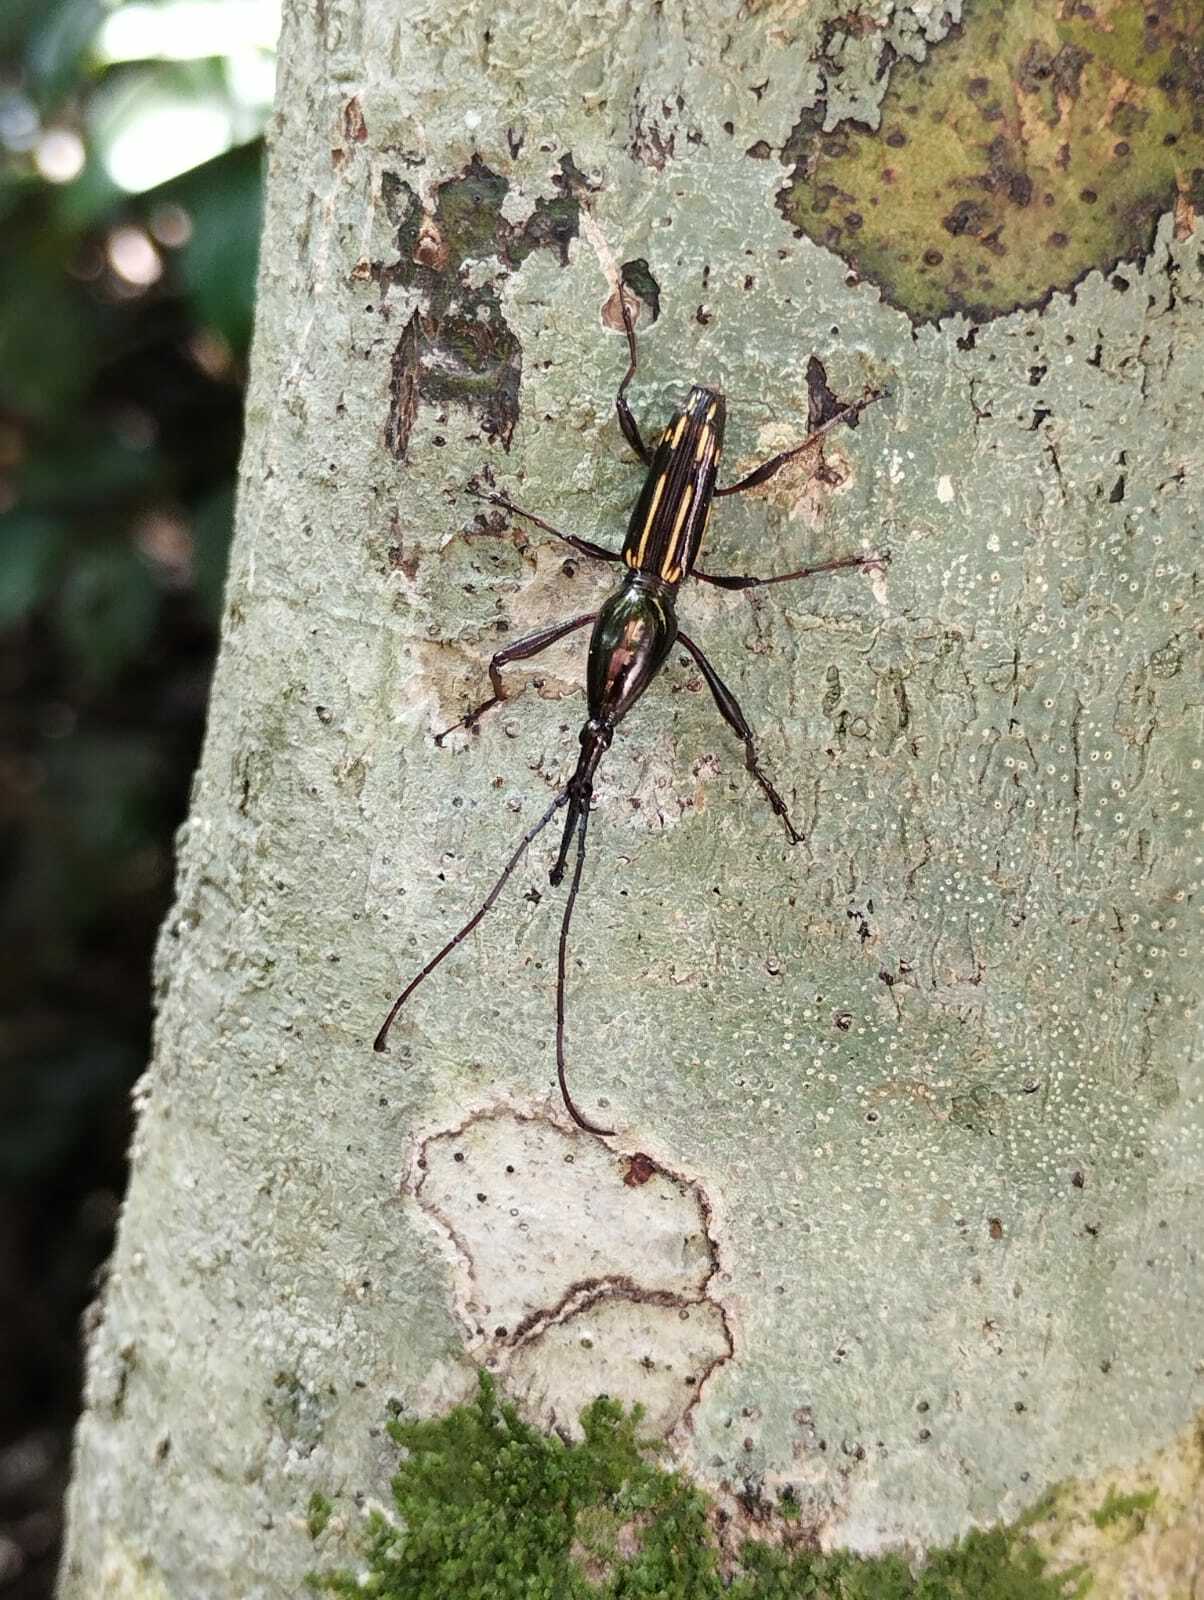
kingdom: Animalia
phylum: Arthropoda
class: Insecta
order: Coleoptera
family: Brentidae
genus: Abrentodes
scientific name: Abrentodes auratus
